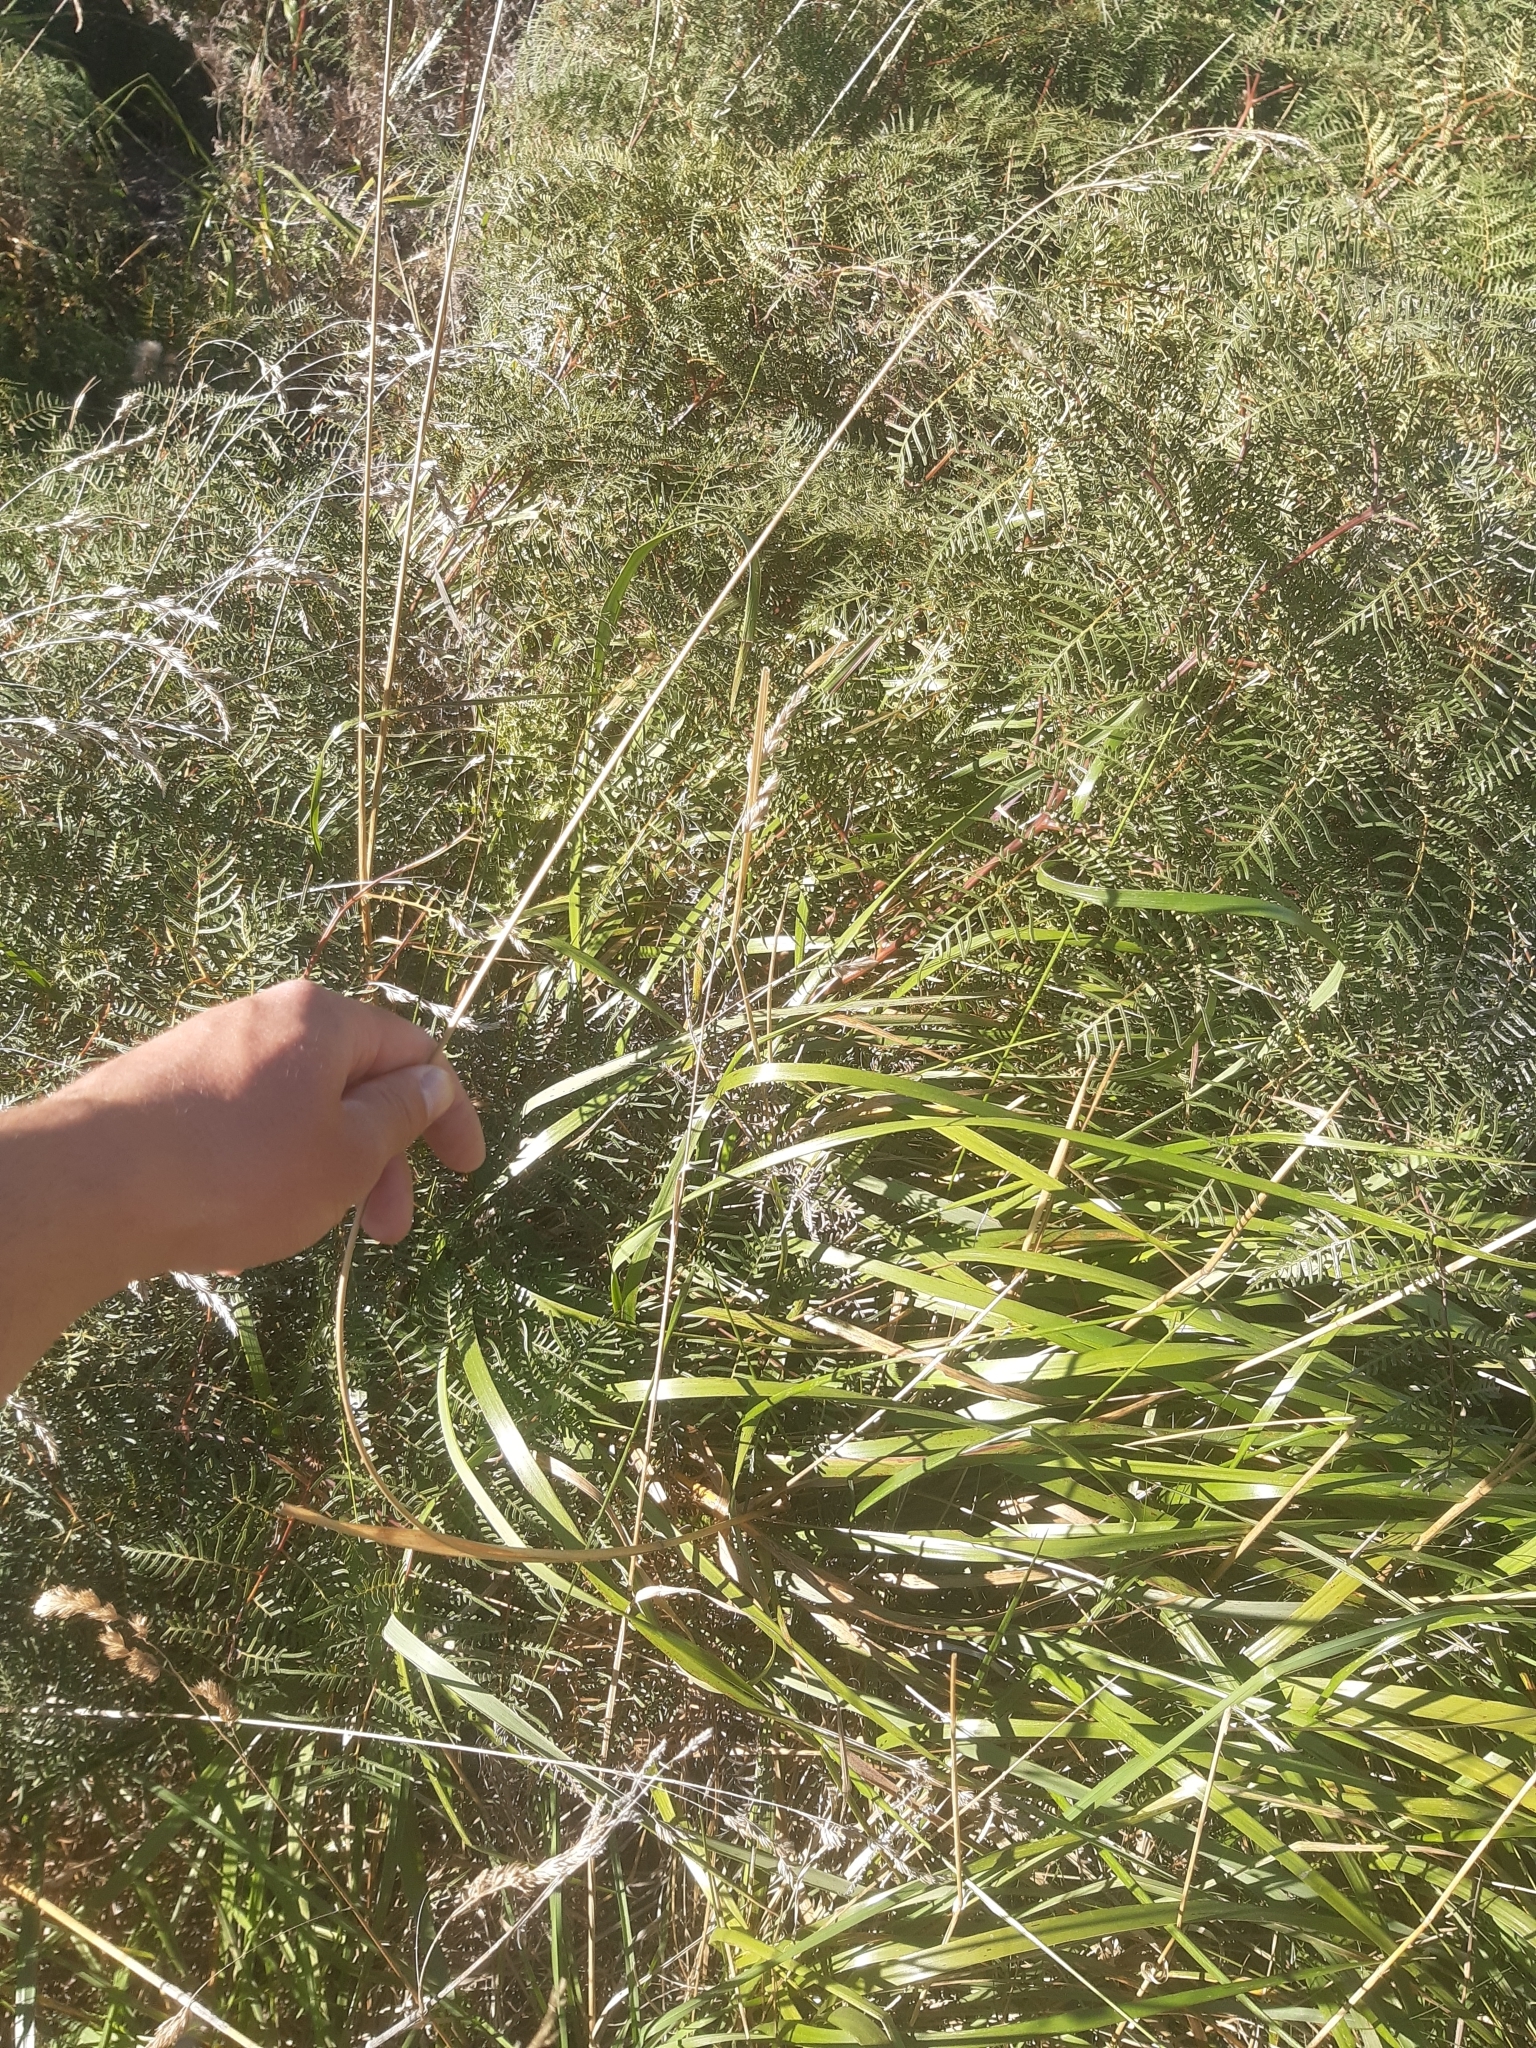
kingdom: Plantae
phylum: Tracheophyta
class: Liliopsida
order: Poales
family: Poaceae
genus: Anthoxanthum
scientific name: Anthoxanthum redolens
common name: Sweet holy grass
